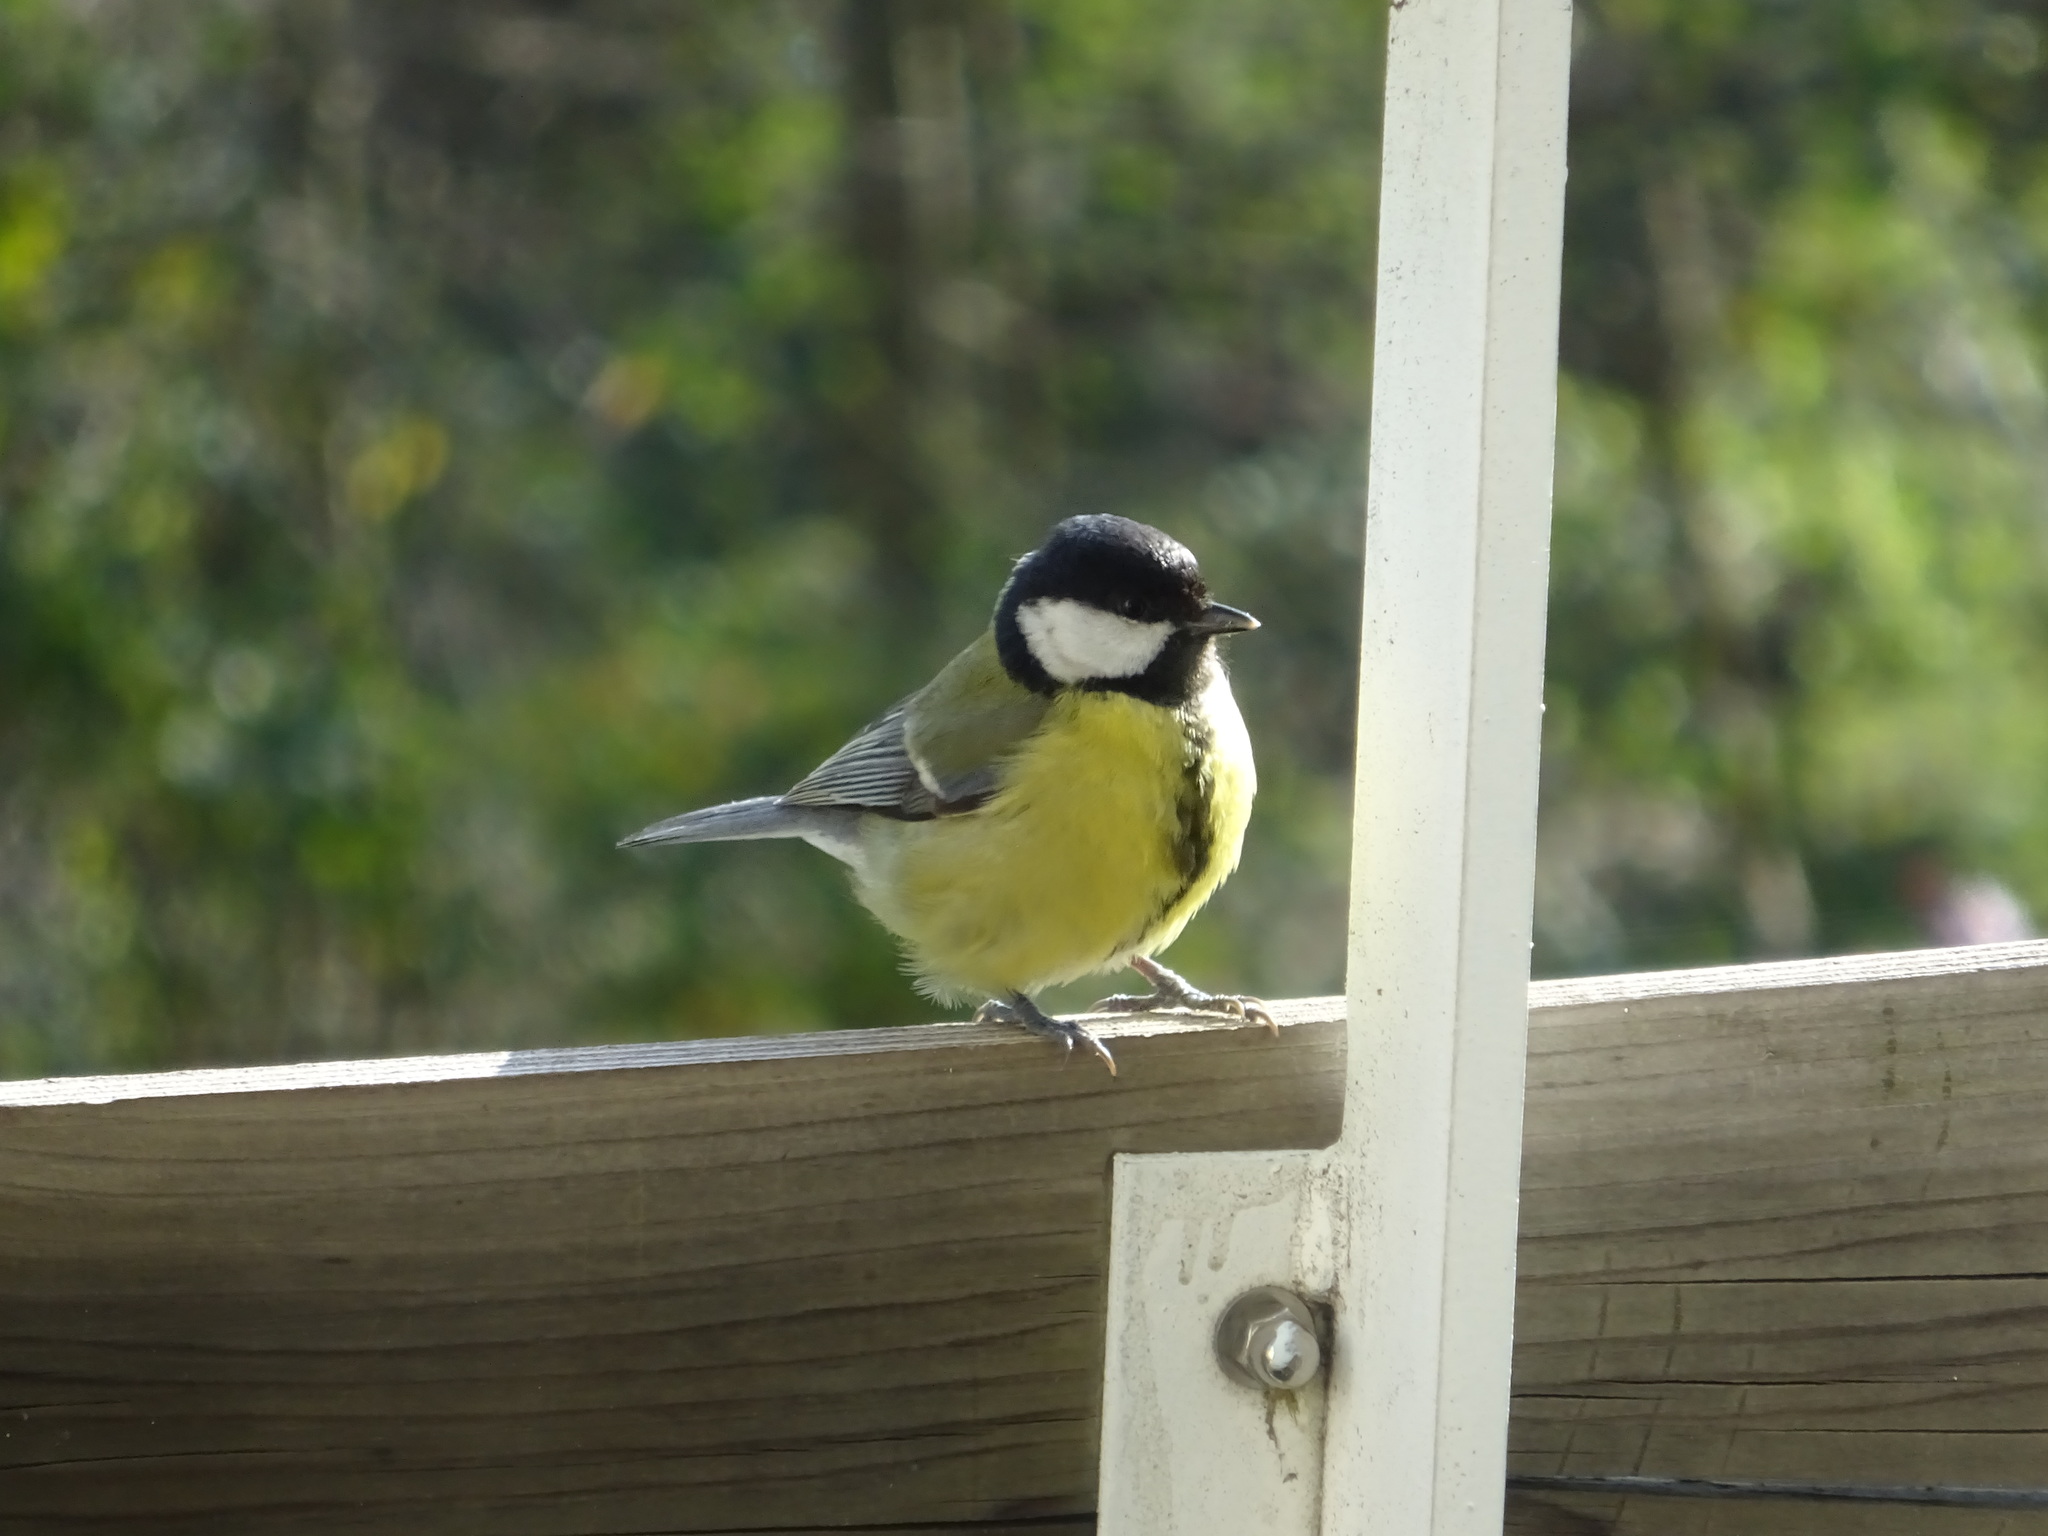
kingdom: Animalia
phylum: Chordata
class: Aves
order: Passeriformes
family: Paridae
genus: Parus
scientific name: Parus major
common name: Great tit
